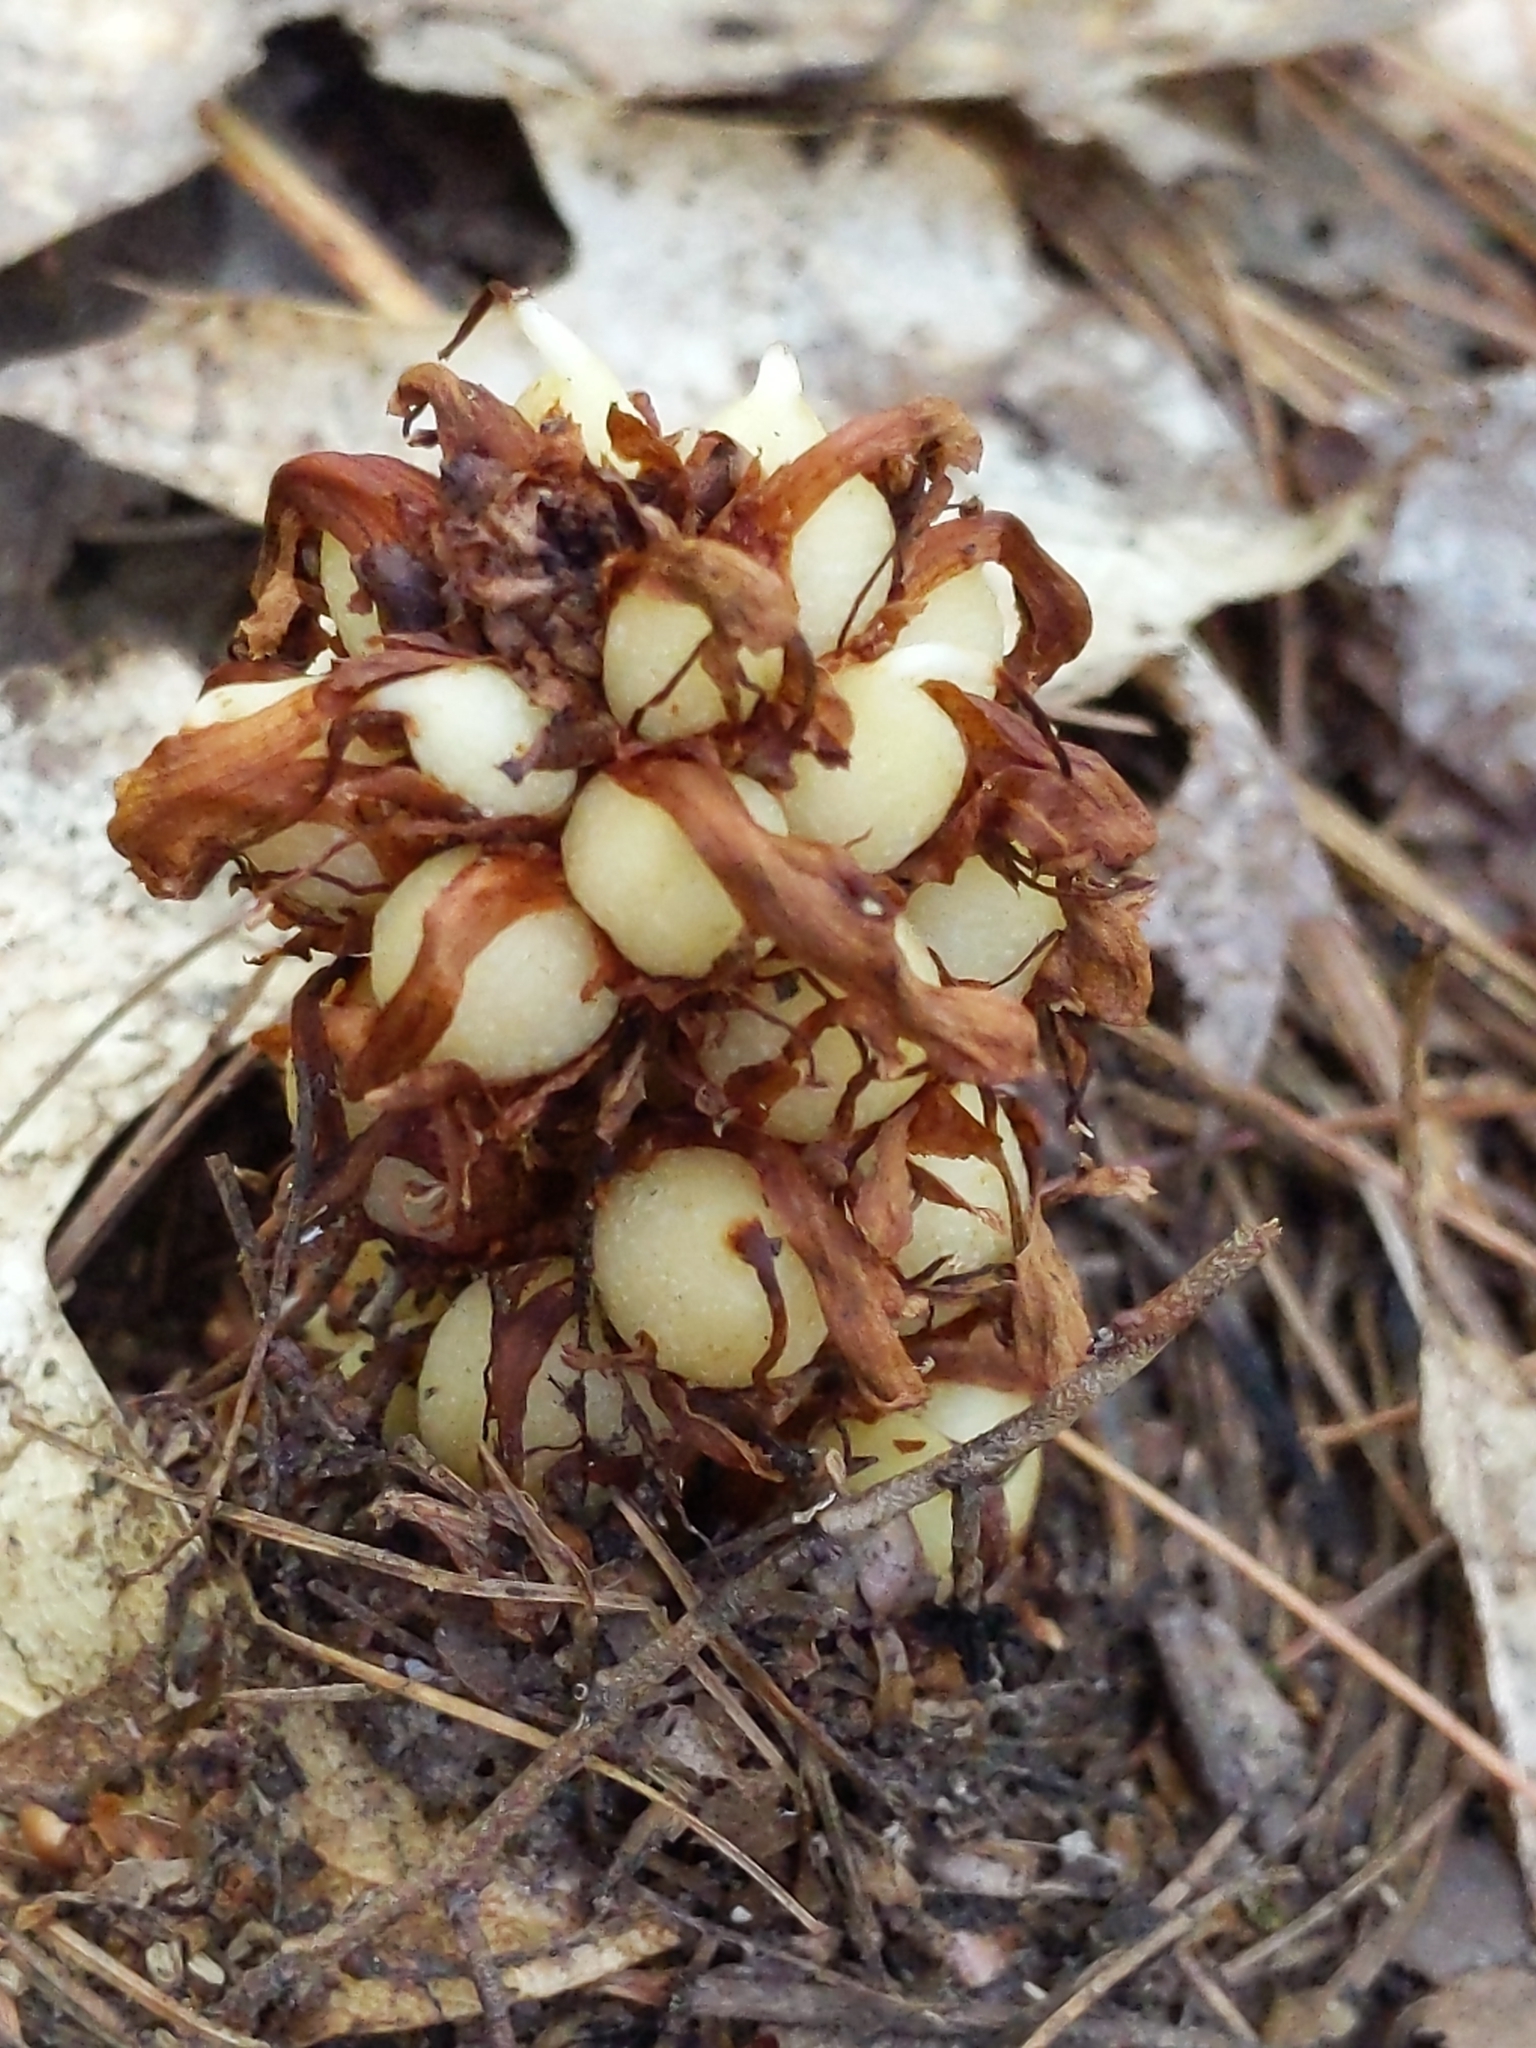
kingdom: Plantae
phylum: Tracheophyta
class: Magnoliopsida
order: Lamiales
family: Orobanchaceae
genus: Conopholis
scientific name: Conopholis americana
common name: American cancer-root
